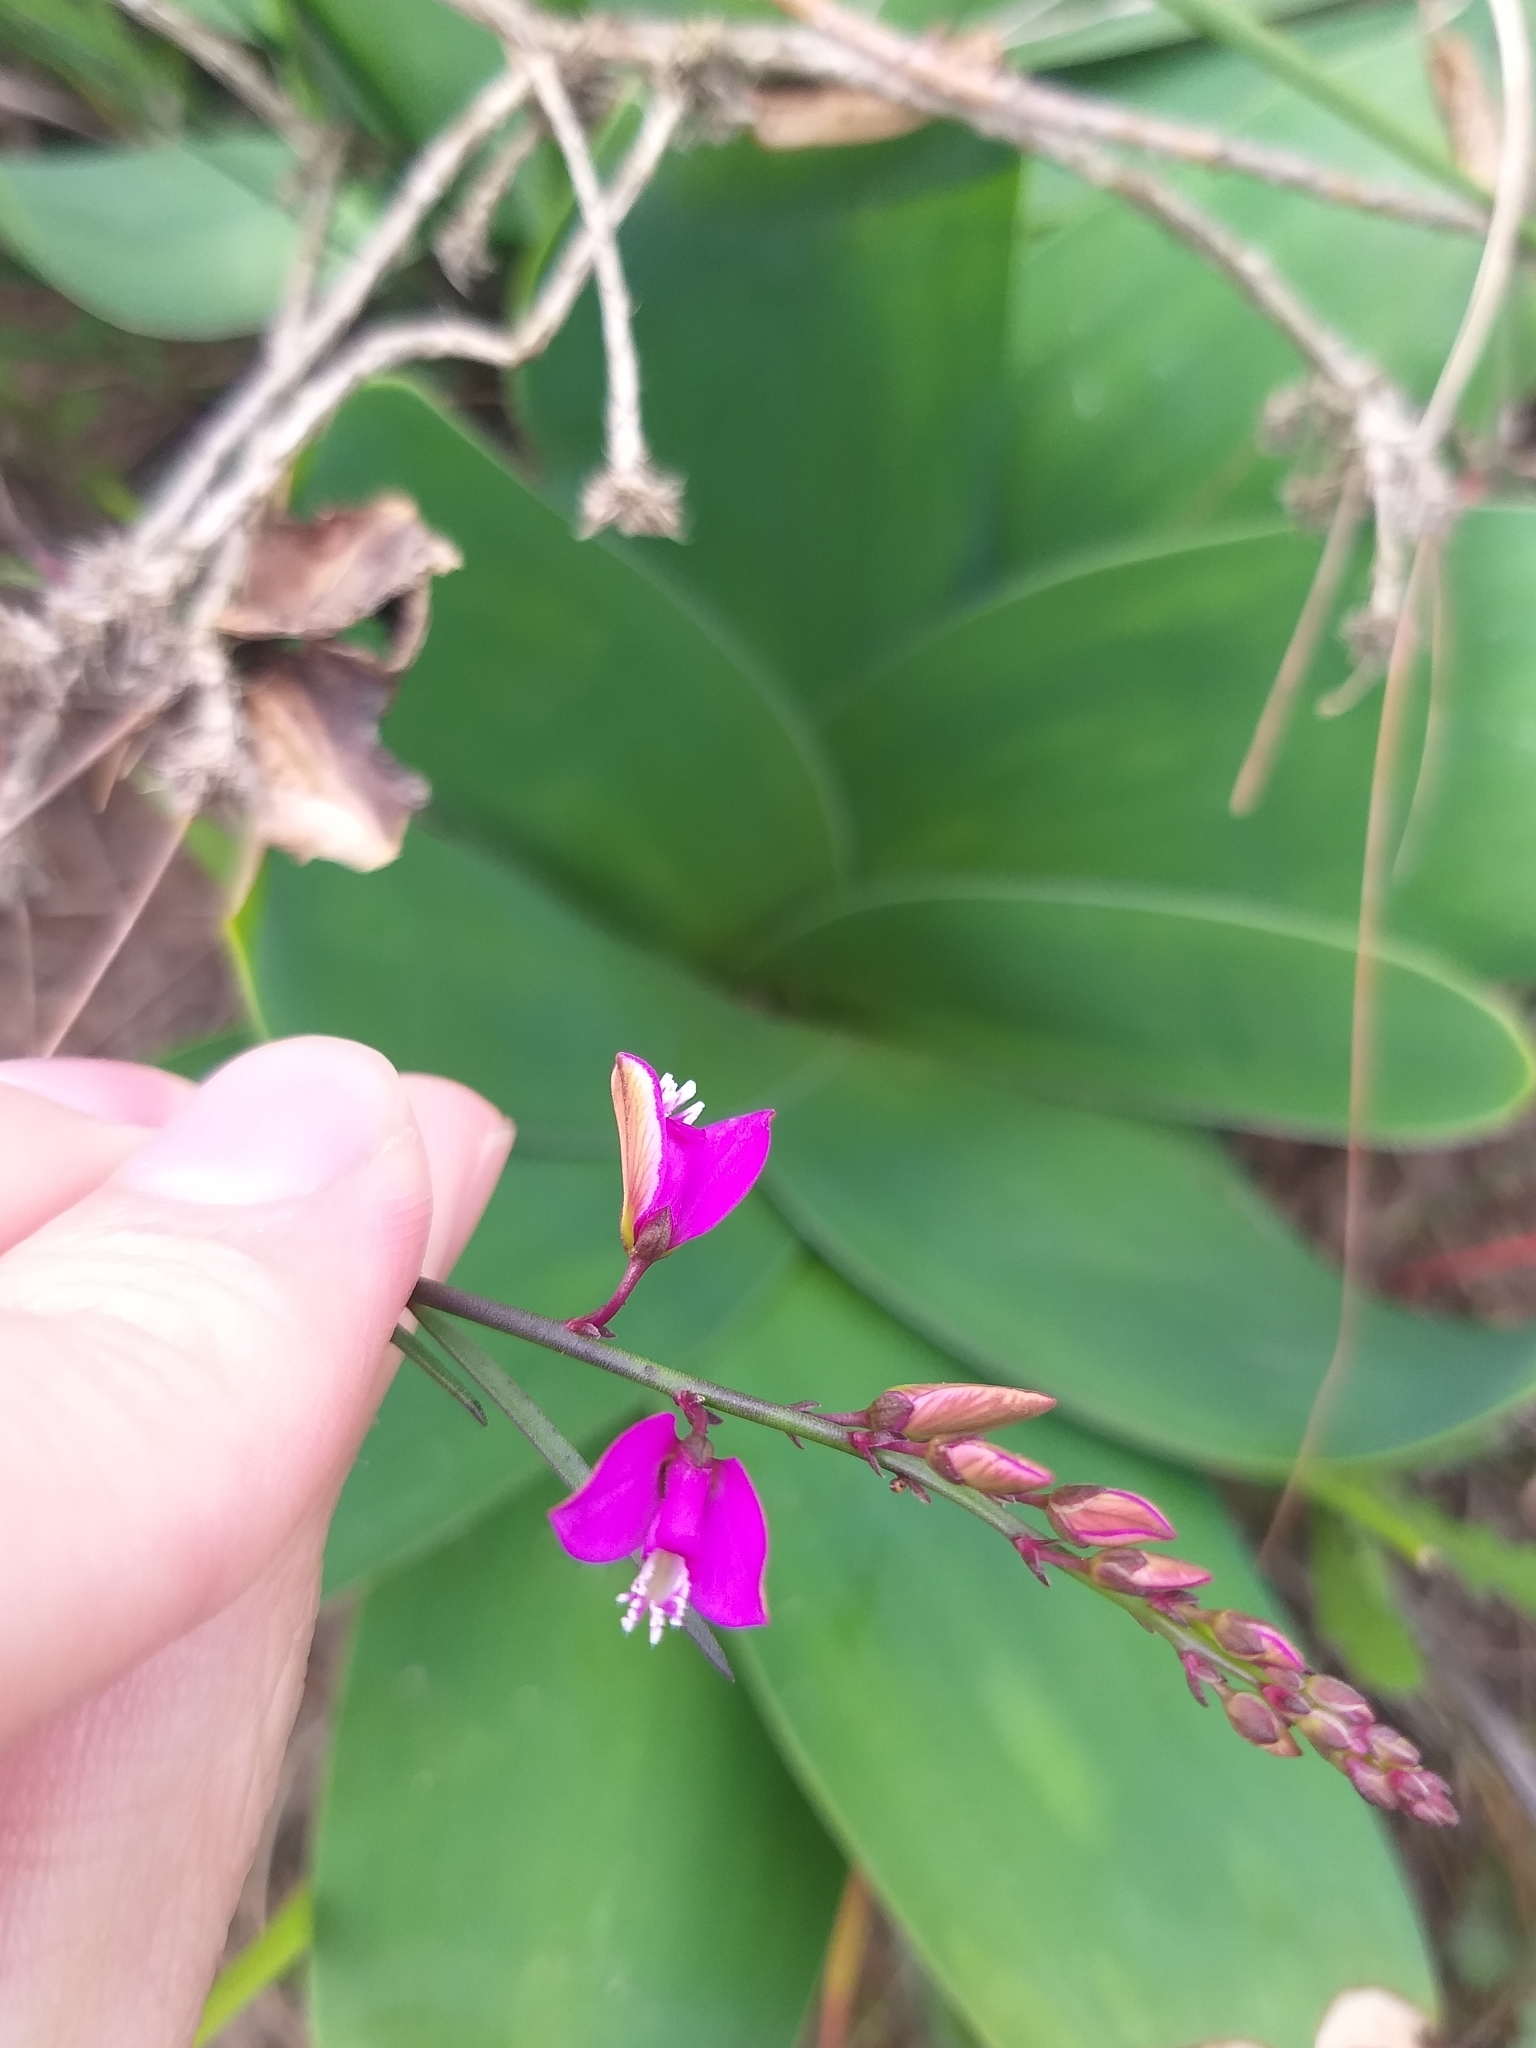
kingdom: Plantae
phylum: Tracheophyta
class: Magnoliopsida
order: Fabales
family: Polygalaceae
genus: Polygala
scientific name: Polygala garcini
